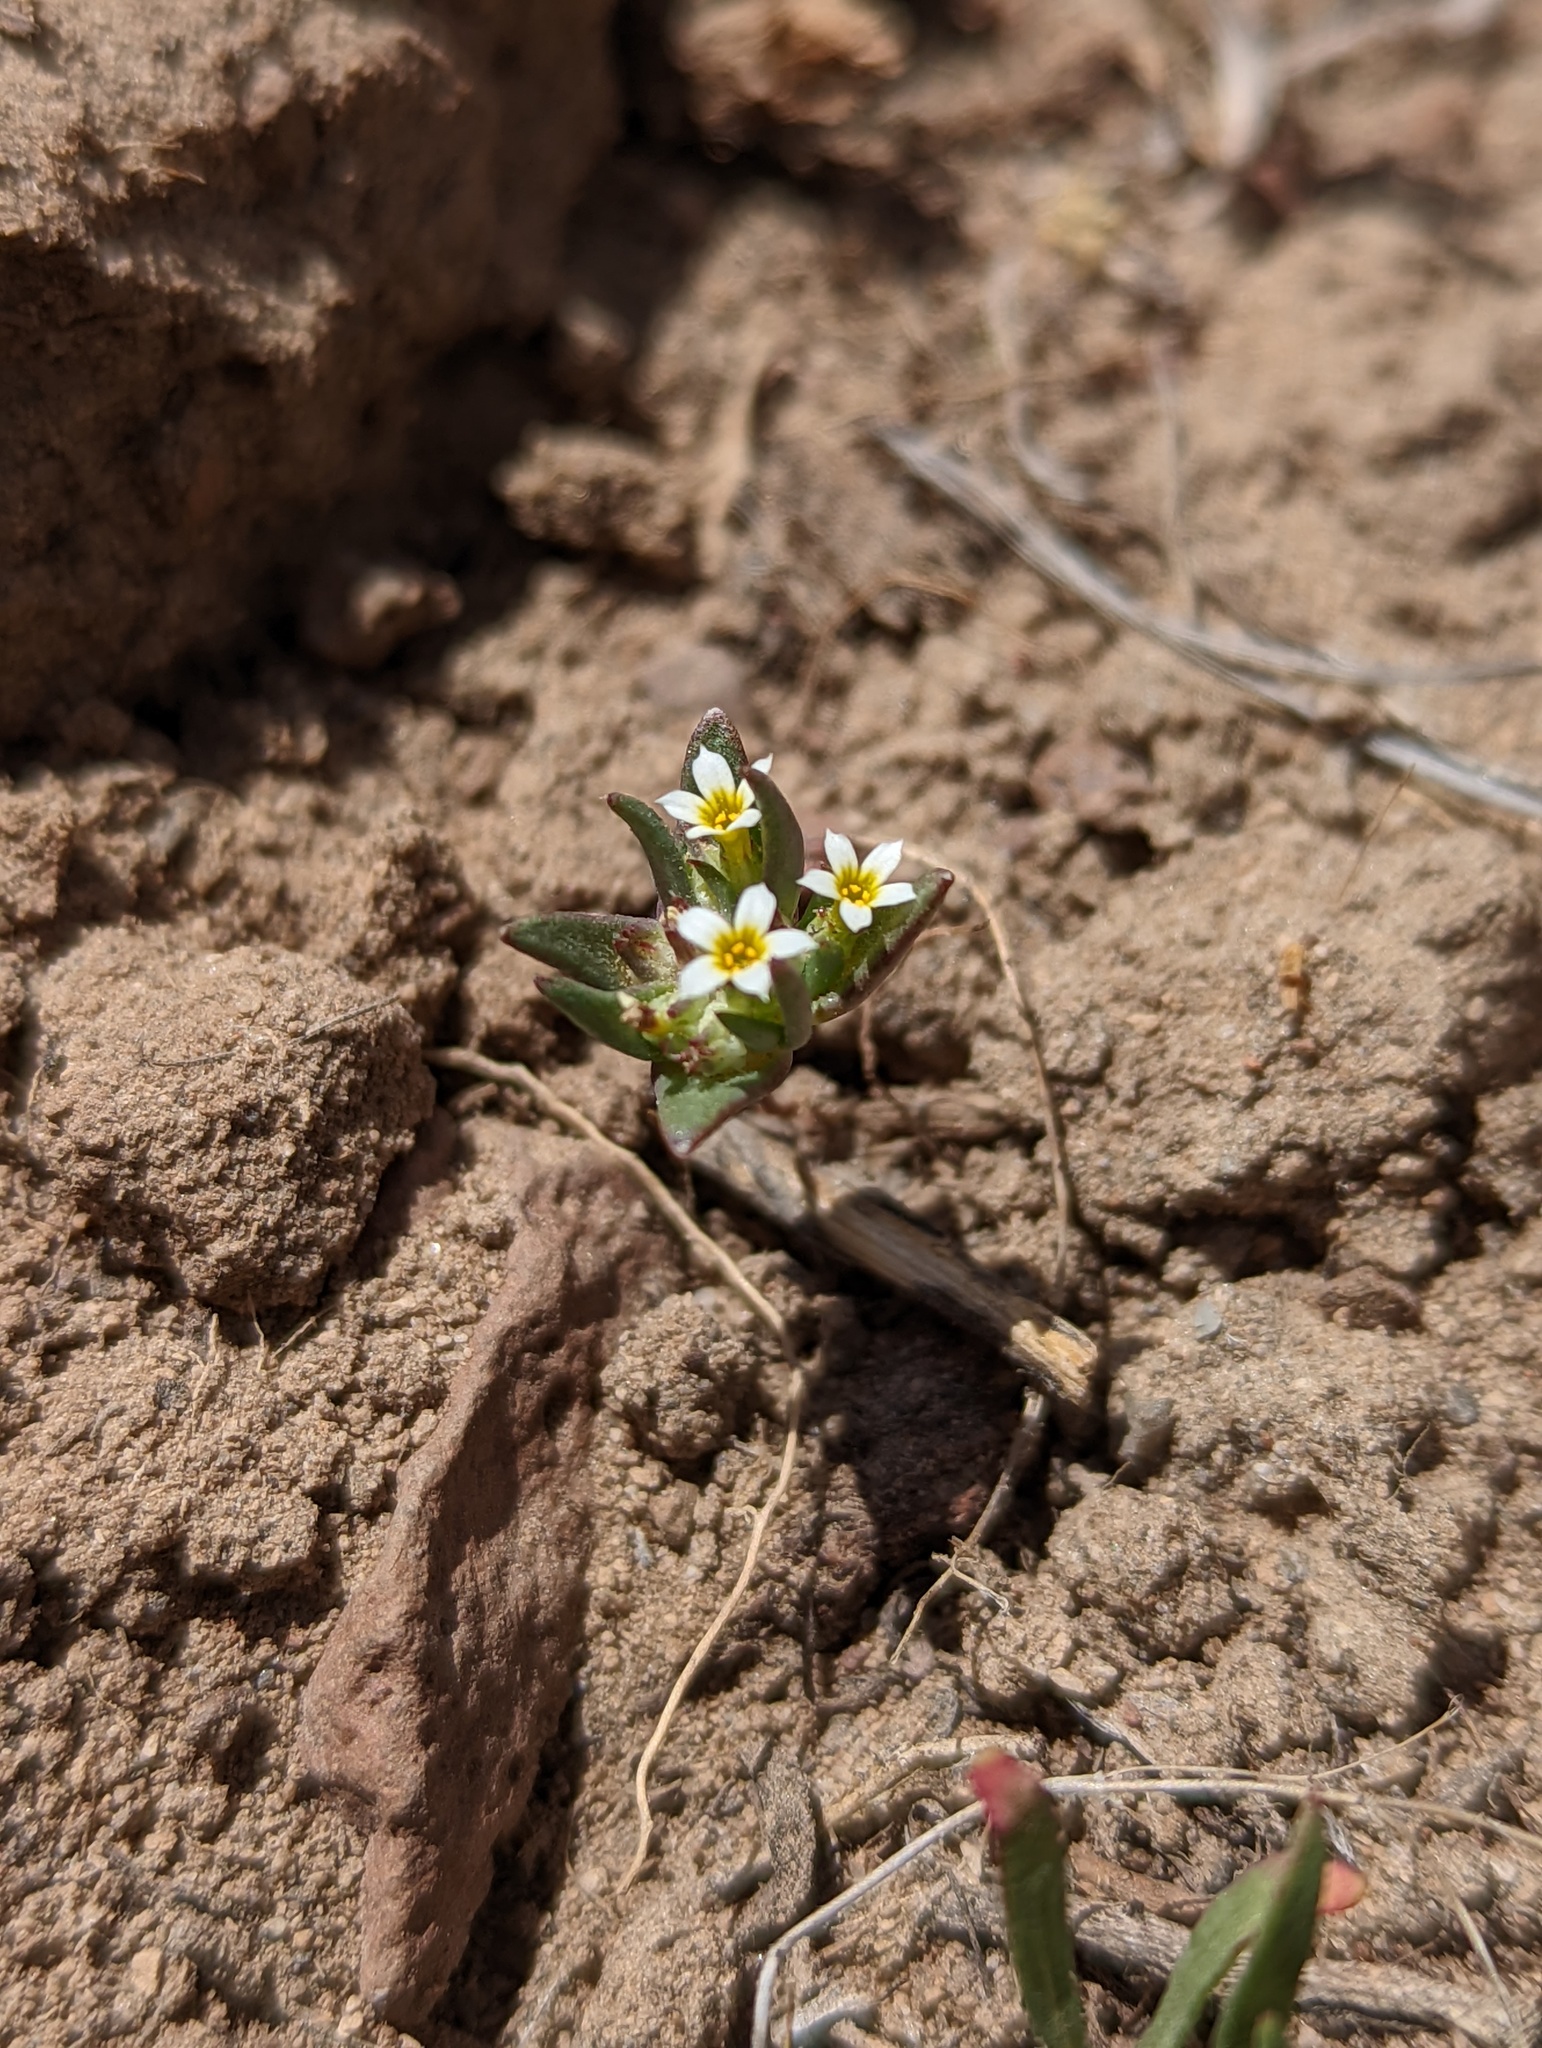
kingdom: Plantae
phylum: Tracheophyta
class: Magnoliopsida
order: Ericales
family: Polemoniaceae
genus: Gymnosteris
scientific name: Gymnosteris parvula
